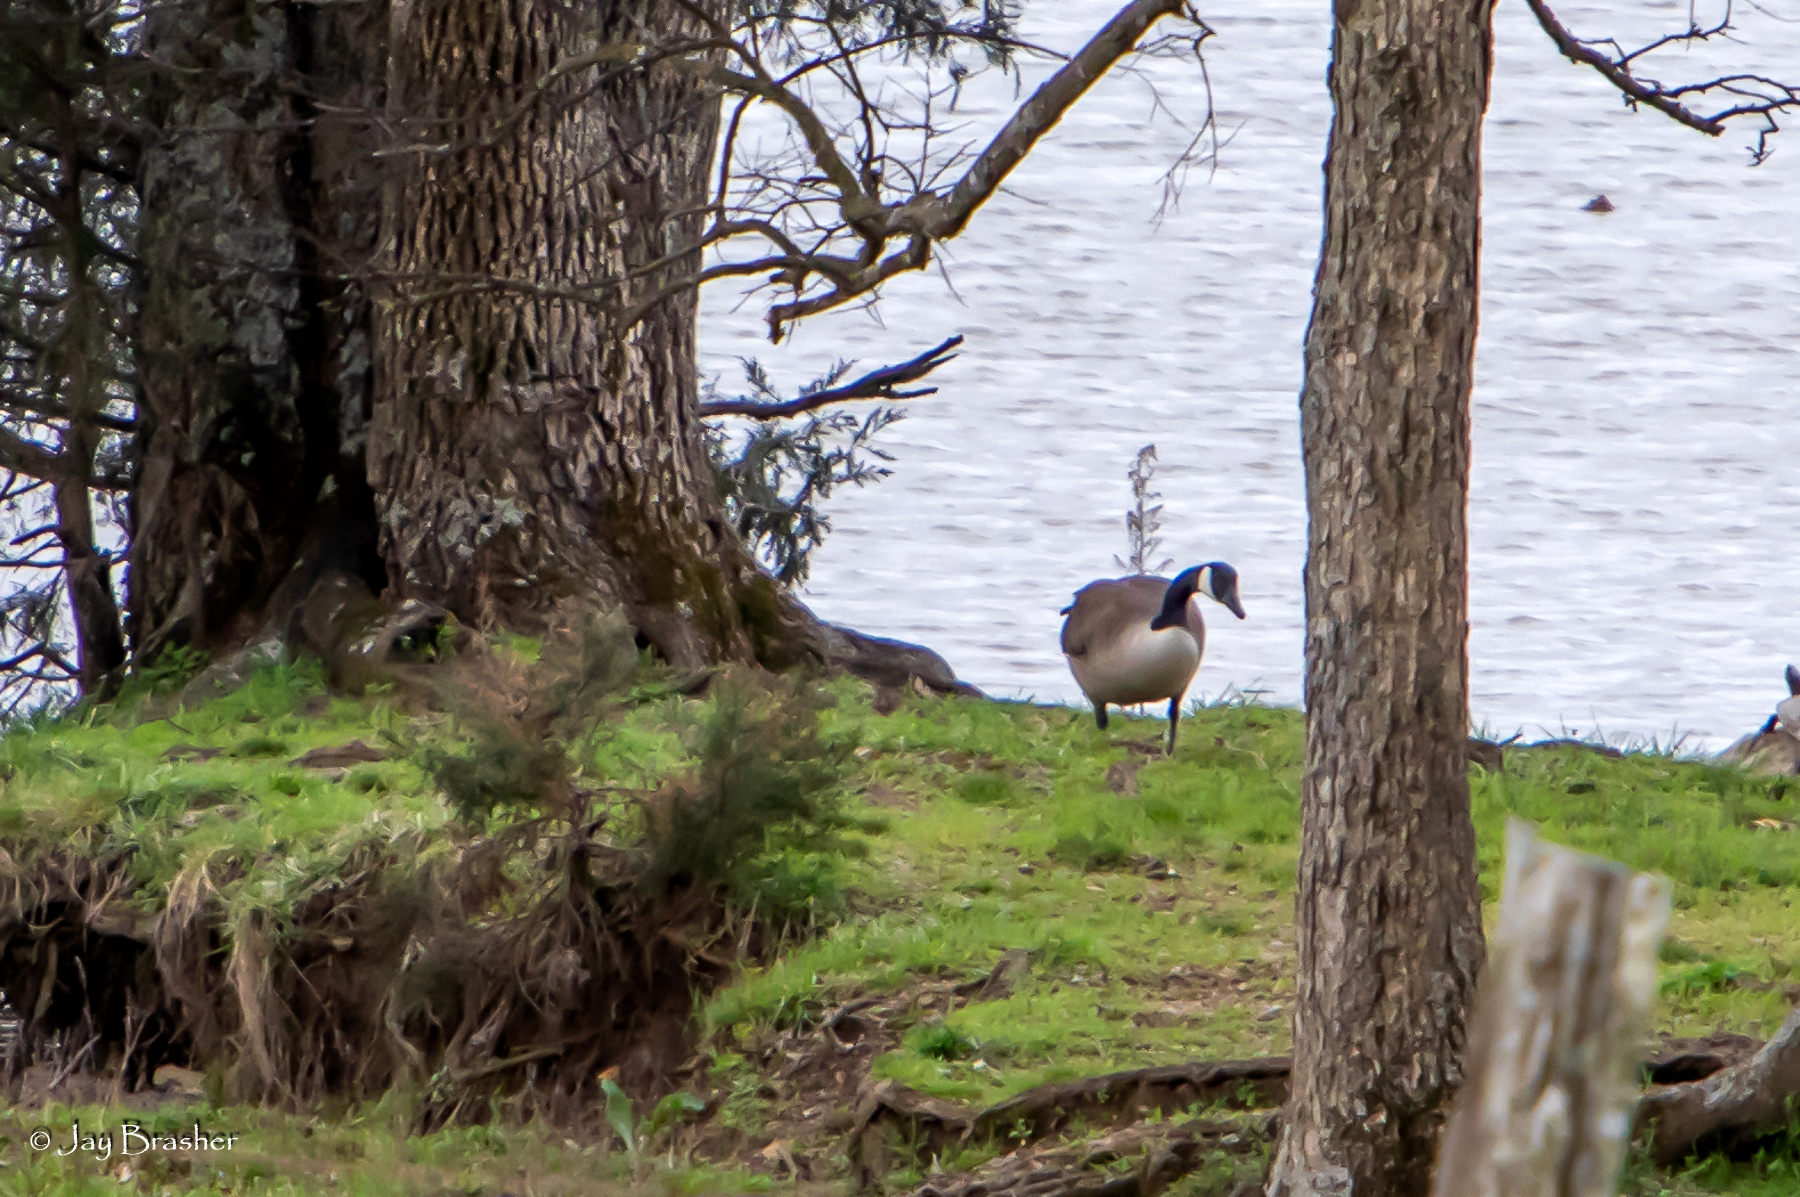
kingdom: Animalia
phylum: Chordata
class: Aves
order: Anseriformes
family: Anatidae
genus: Branta
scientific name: Branta canadensis
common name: Canada goose
